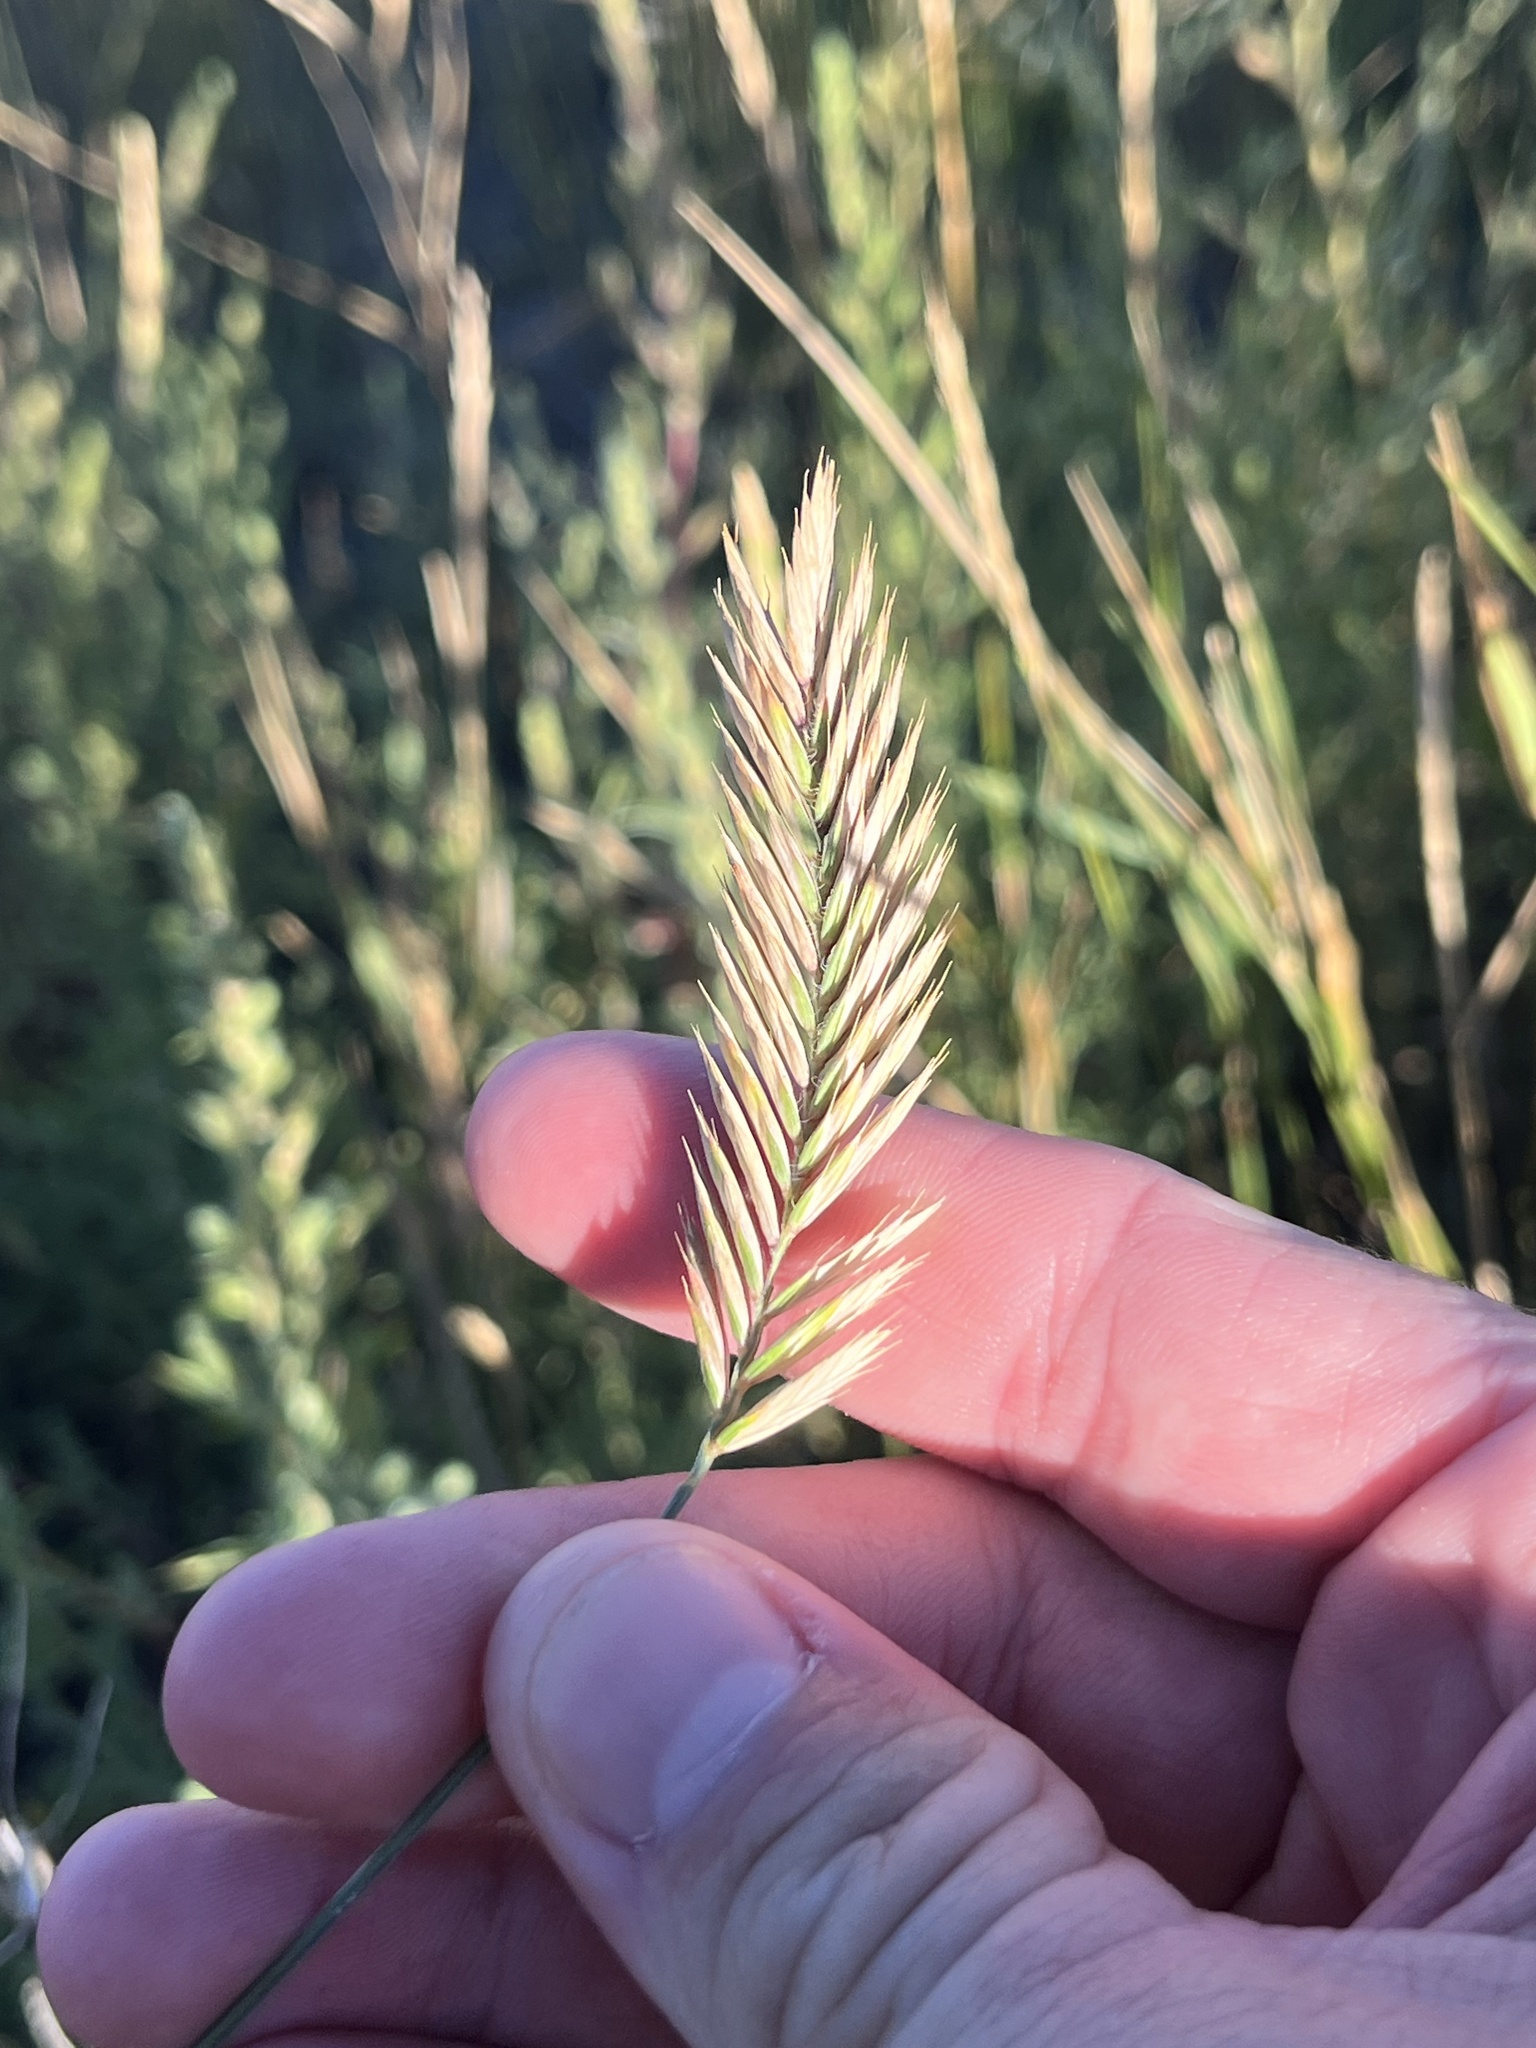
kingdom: Plantae
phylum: Tracheophyta
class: Liliopsida
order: Poales
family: Poaceae
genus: Agropyron
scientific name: Agropyron cristatum
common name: Crested wheatgrass
